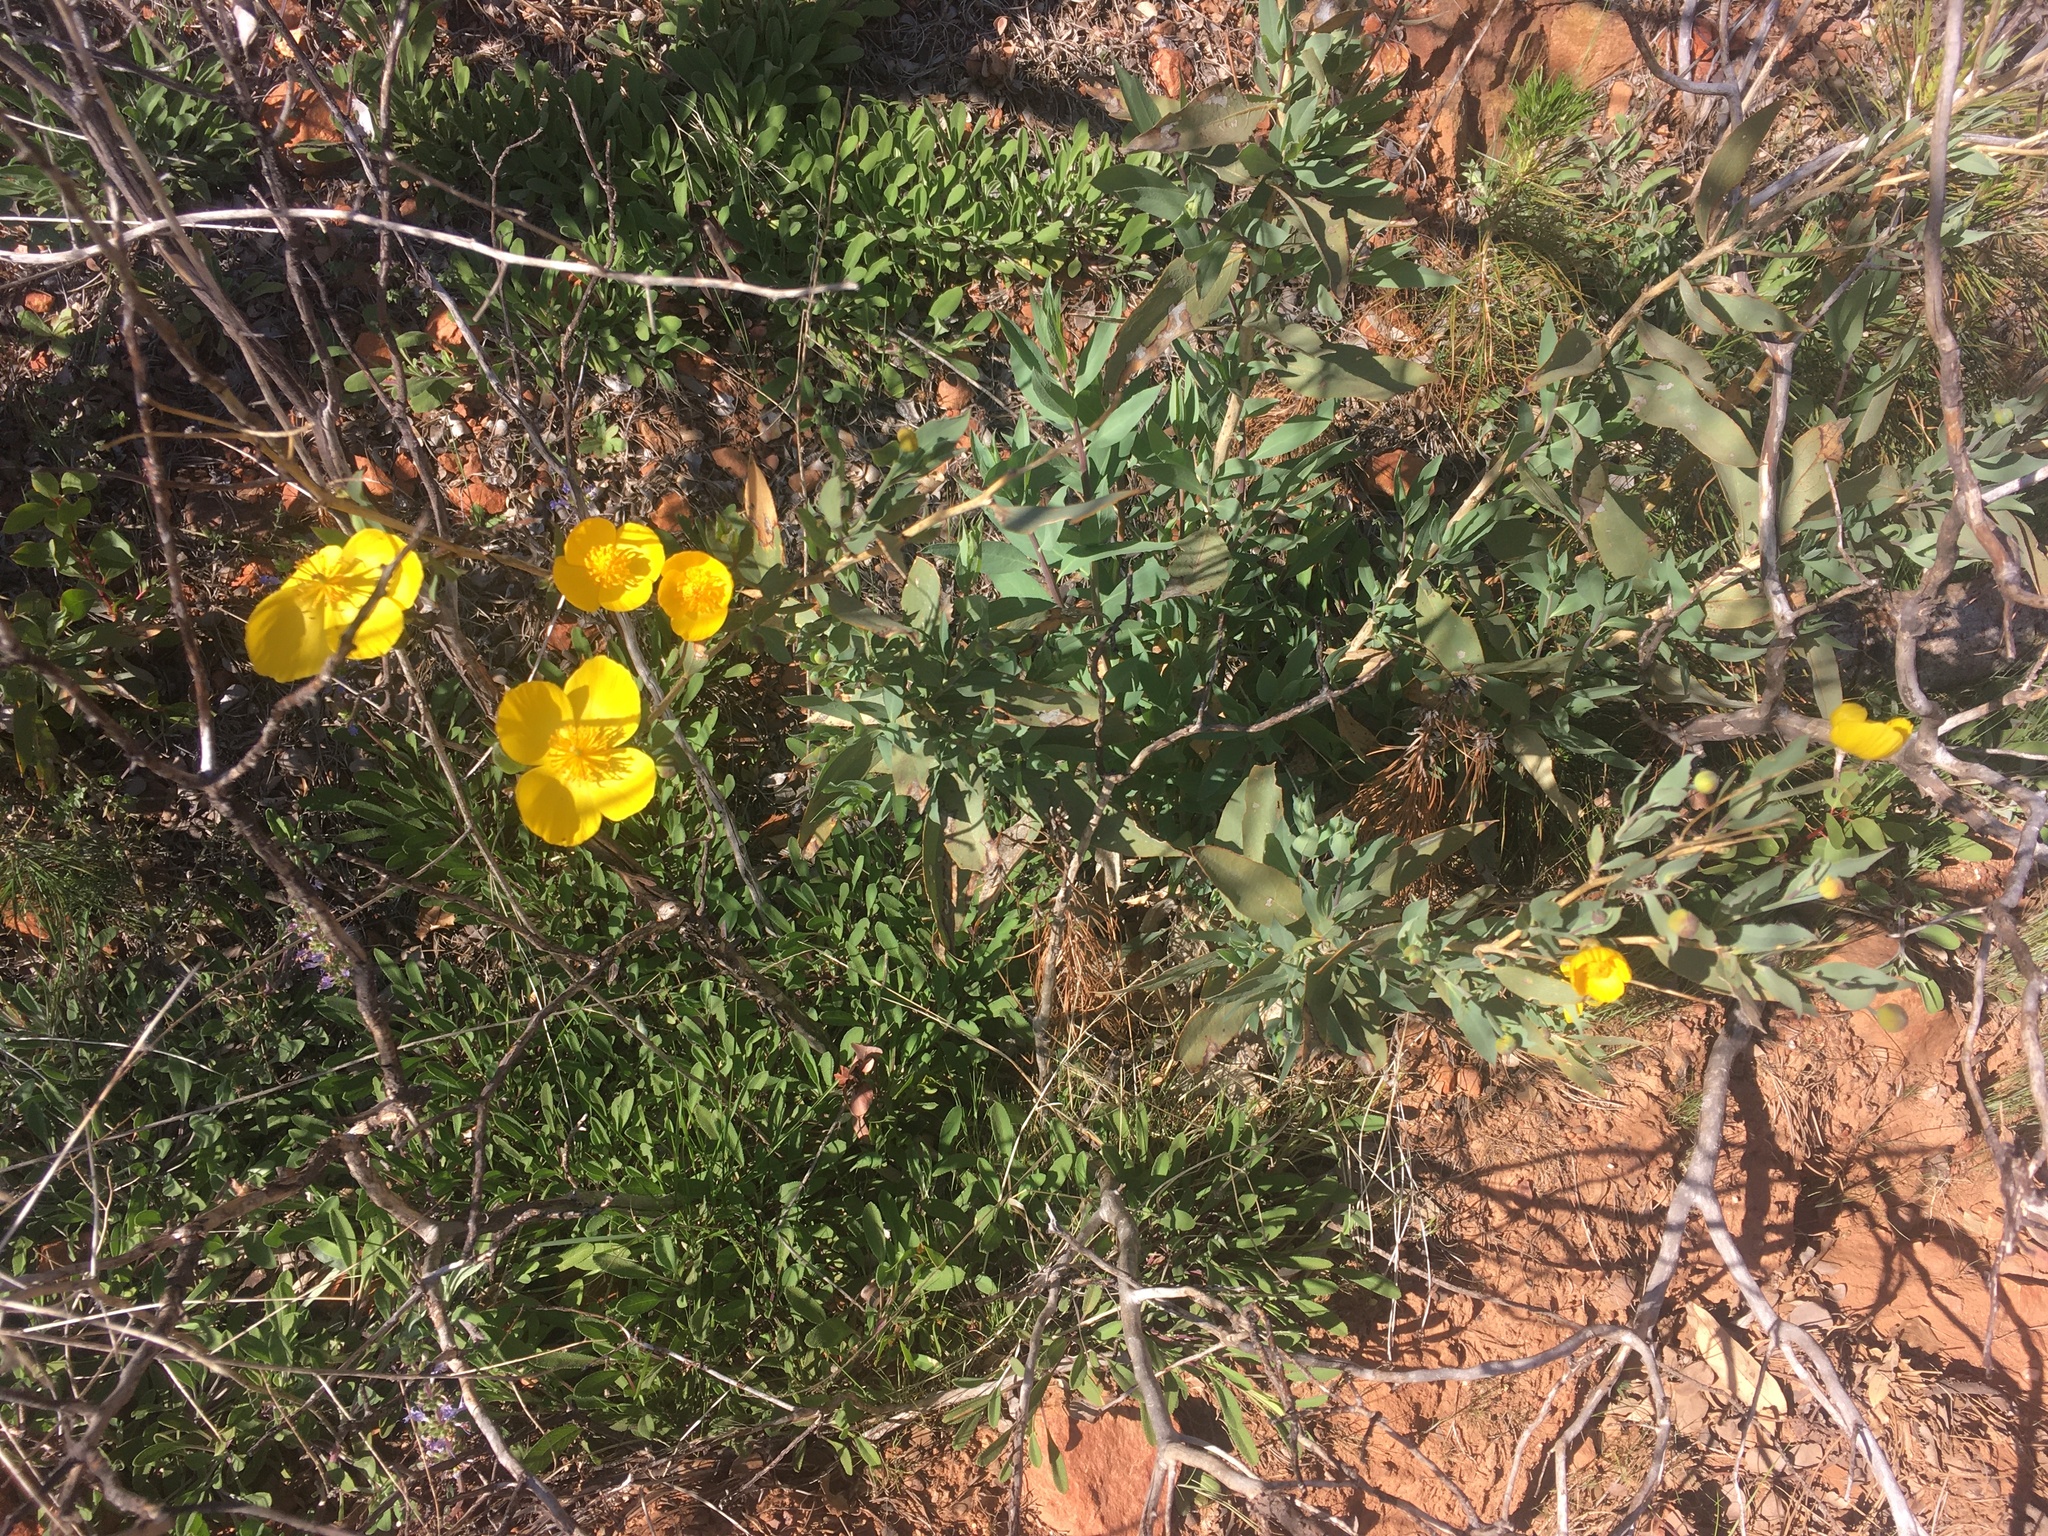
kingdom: Plantae
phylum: Tracheophyta
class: Magnoliopsida
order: Ranunculales
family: Papaveraceae
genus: Dendromecon
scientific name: Dendromecon rigida
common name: Tree poppy
